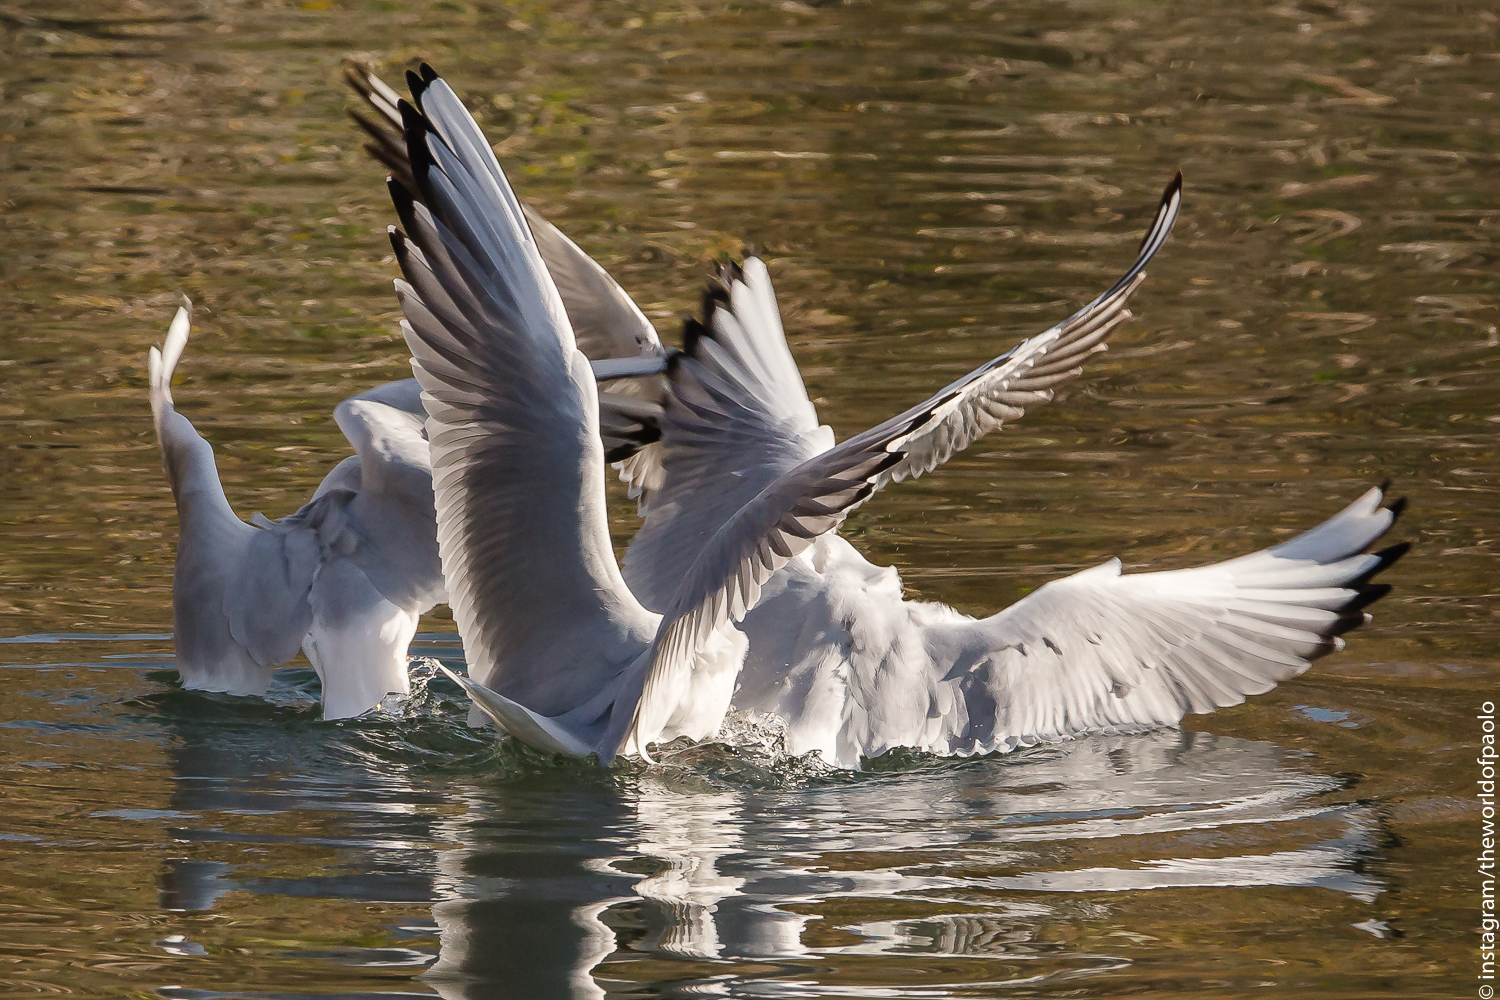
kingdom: Animalia
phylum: Chordata
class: Aves
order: Charadriiformes
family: Laridae
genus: Chroicocephalus
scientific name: Chroicocephalus ridibundus
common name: Black-headed gull
